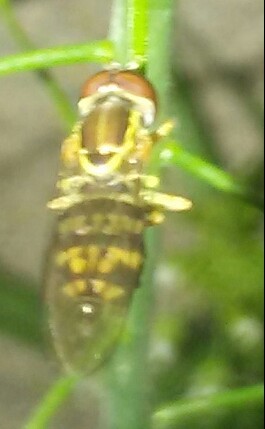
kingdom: Animalia
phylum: Arthropoda
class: Insecta
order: Diptera
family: Syrphidae
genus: Toxomerus
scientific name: Toxomerus geminatus
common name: Eastern calligrapher
